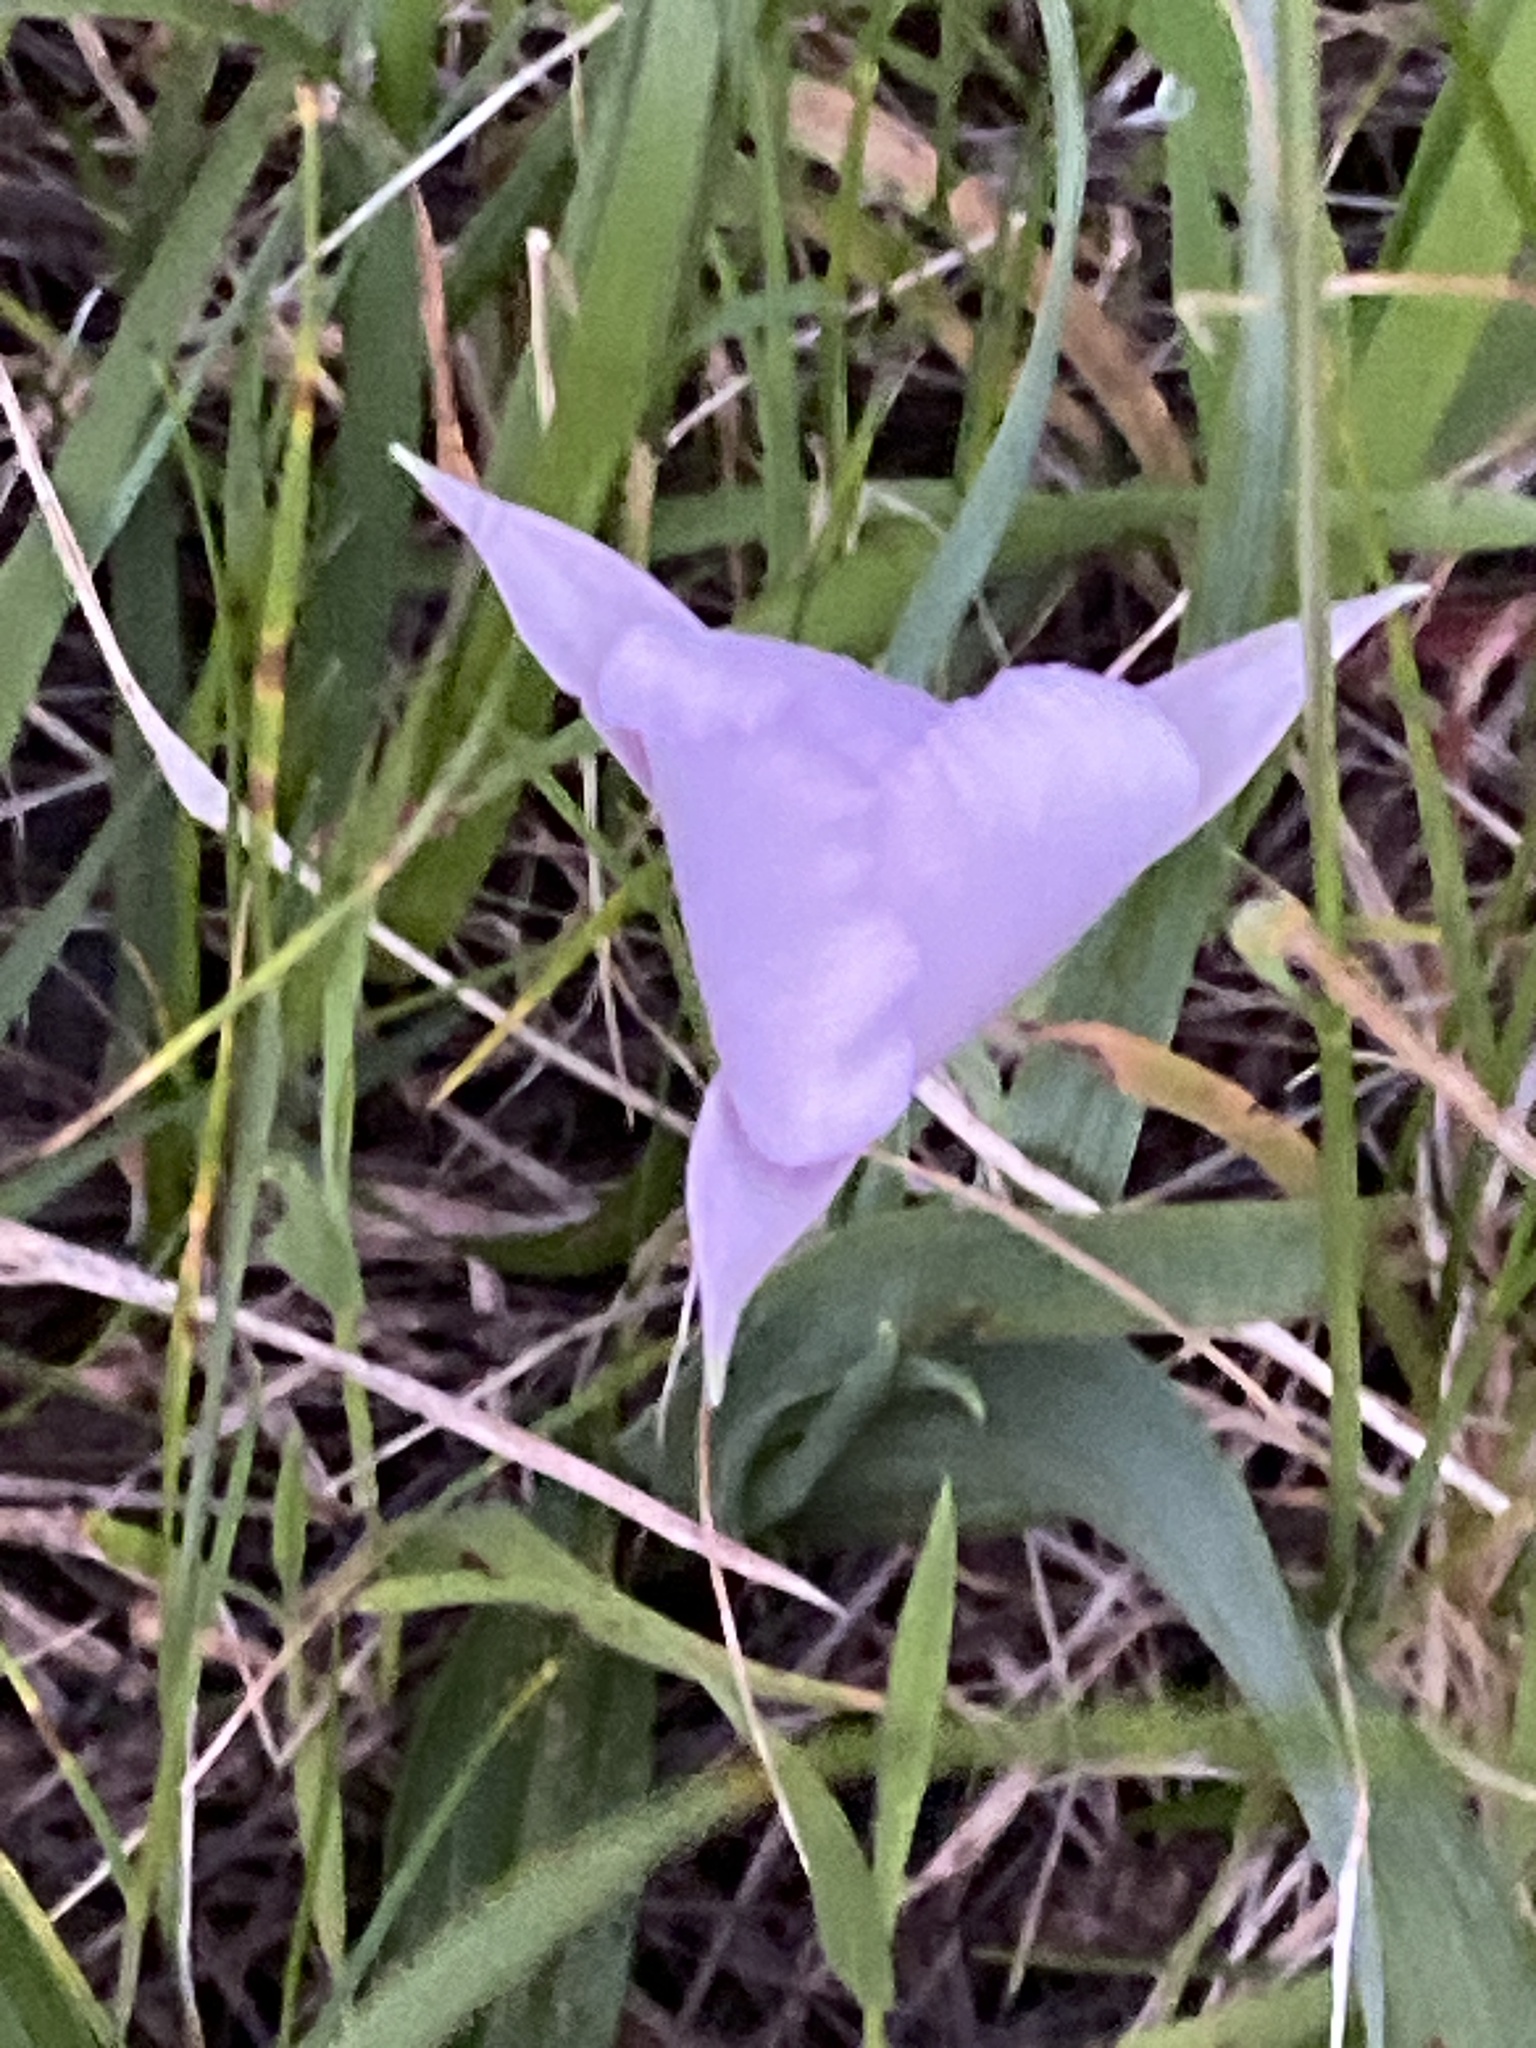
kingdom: Plantae
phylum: Tracheophyta
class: Liliopsida
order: Liliales
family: Liliaceae
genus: Calochortus
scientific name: Calochortus umbellatus
